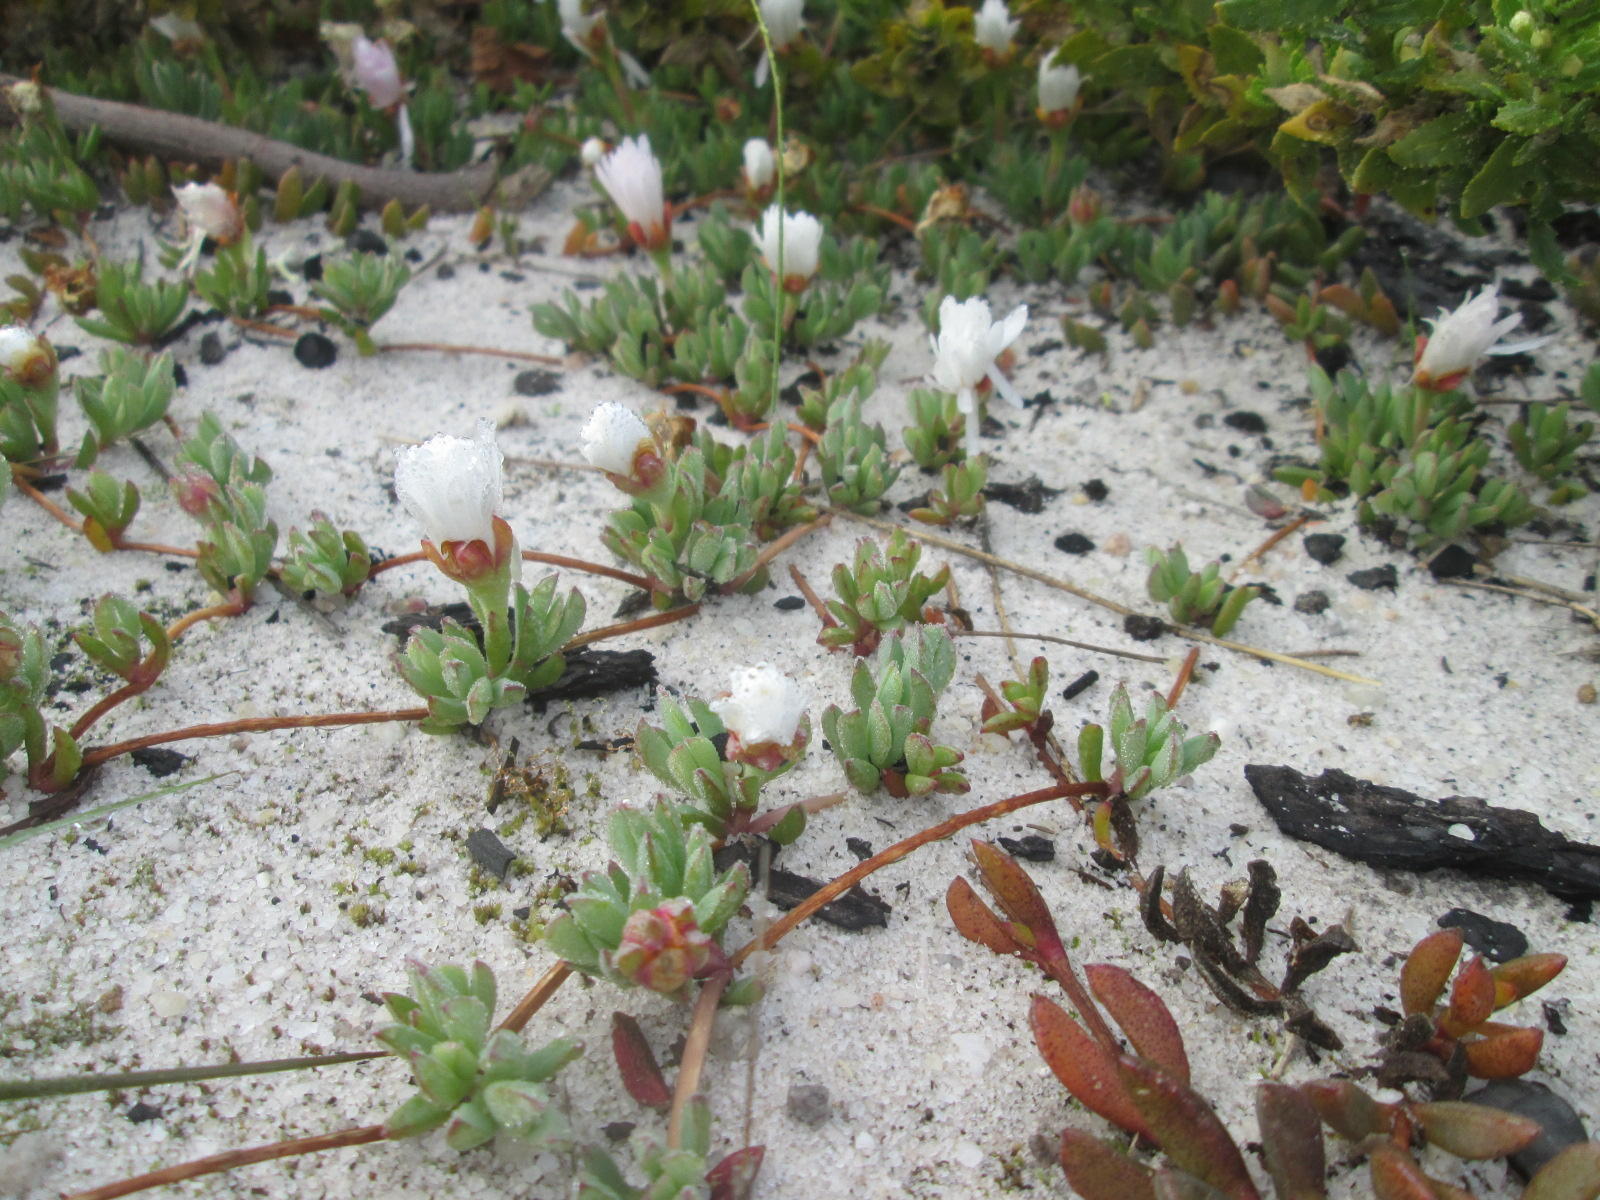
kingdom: Plantae
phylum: Tracheophyta
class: Magnoliopsida
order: Caryophyllales
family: Aizoaceae
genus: Lampranthus
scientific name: Lampranthus reptans
